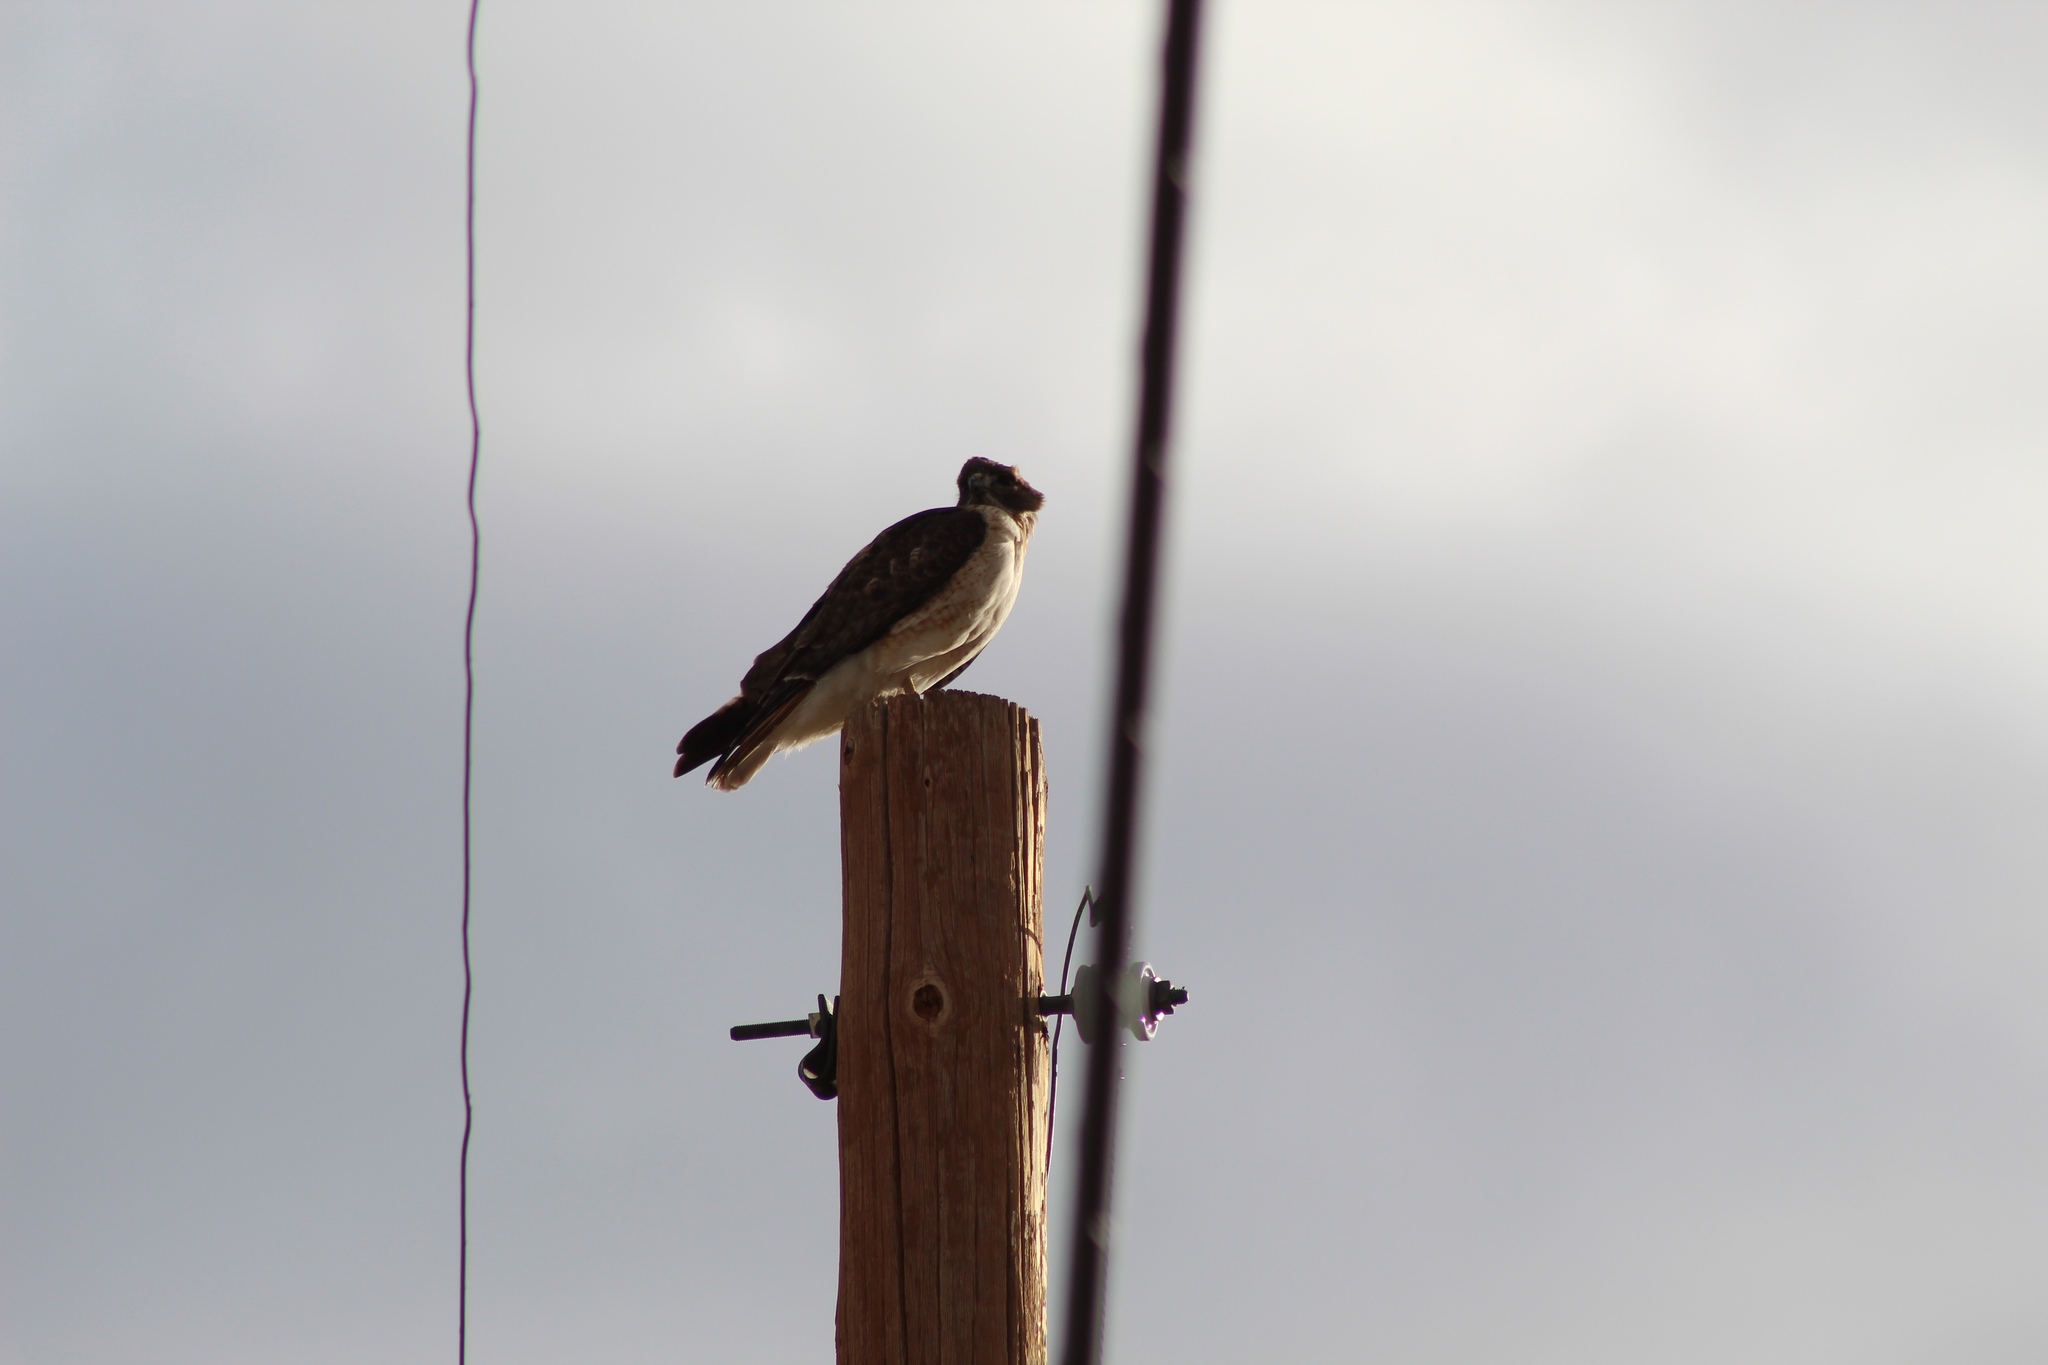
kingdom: Animalia
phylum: Chordata
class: Aves
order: Accipitriformes
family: Accipitridae
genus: Buteo
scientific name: Buteo jamaicensis
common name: Red-tailed hawk
